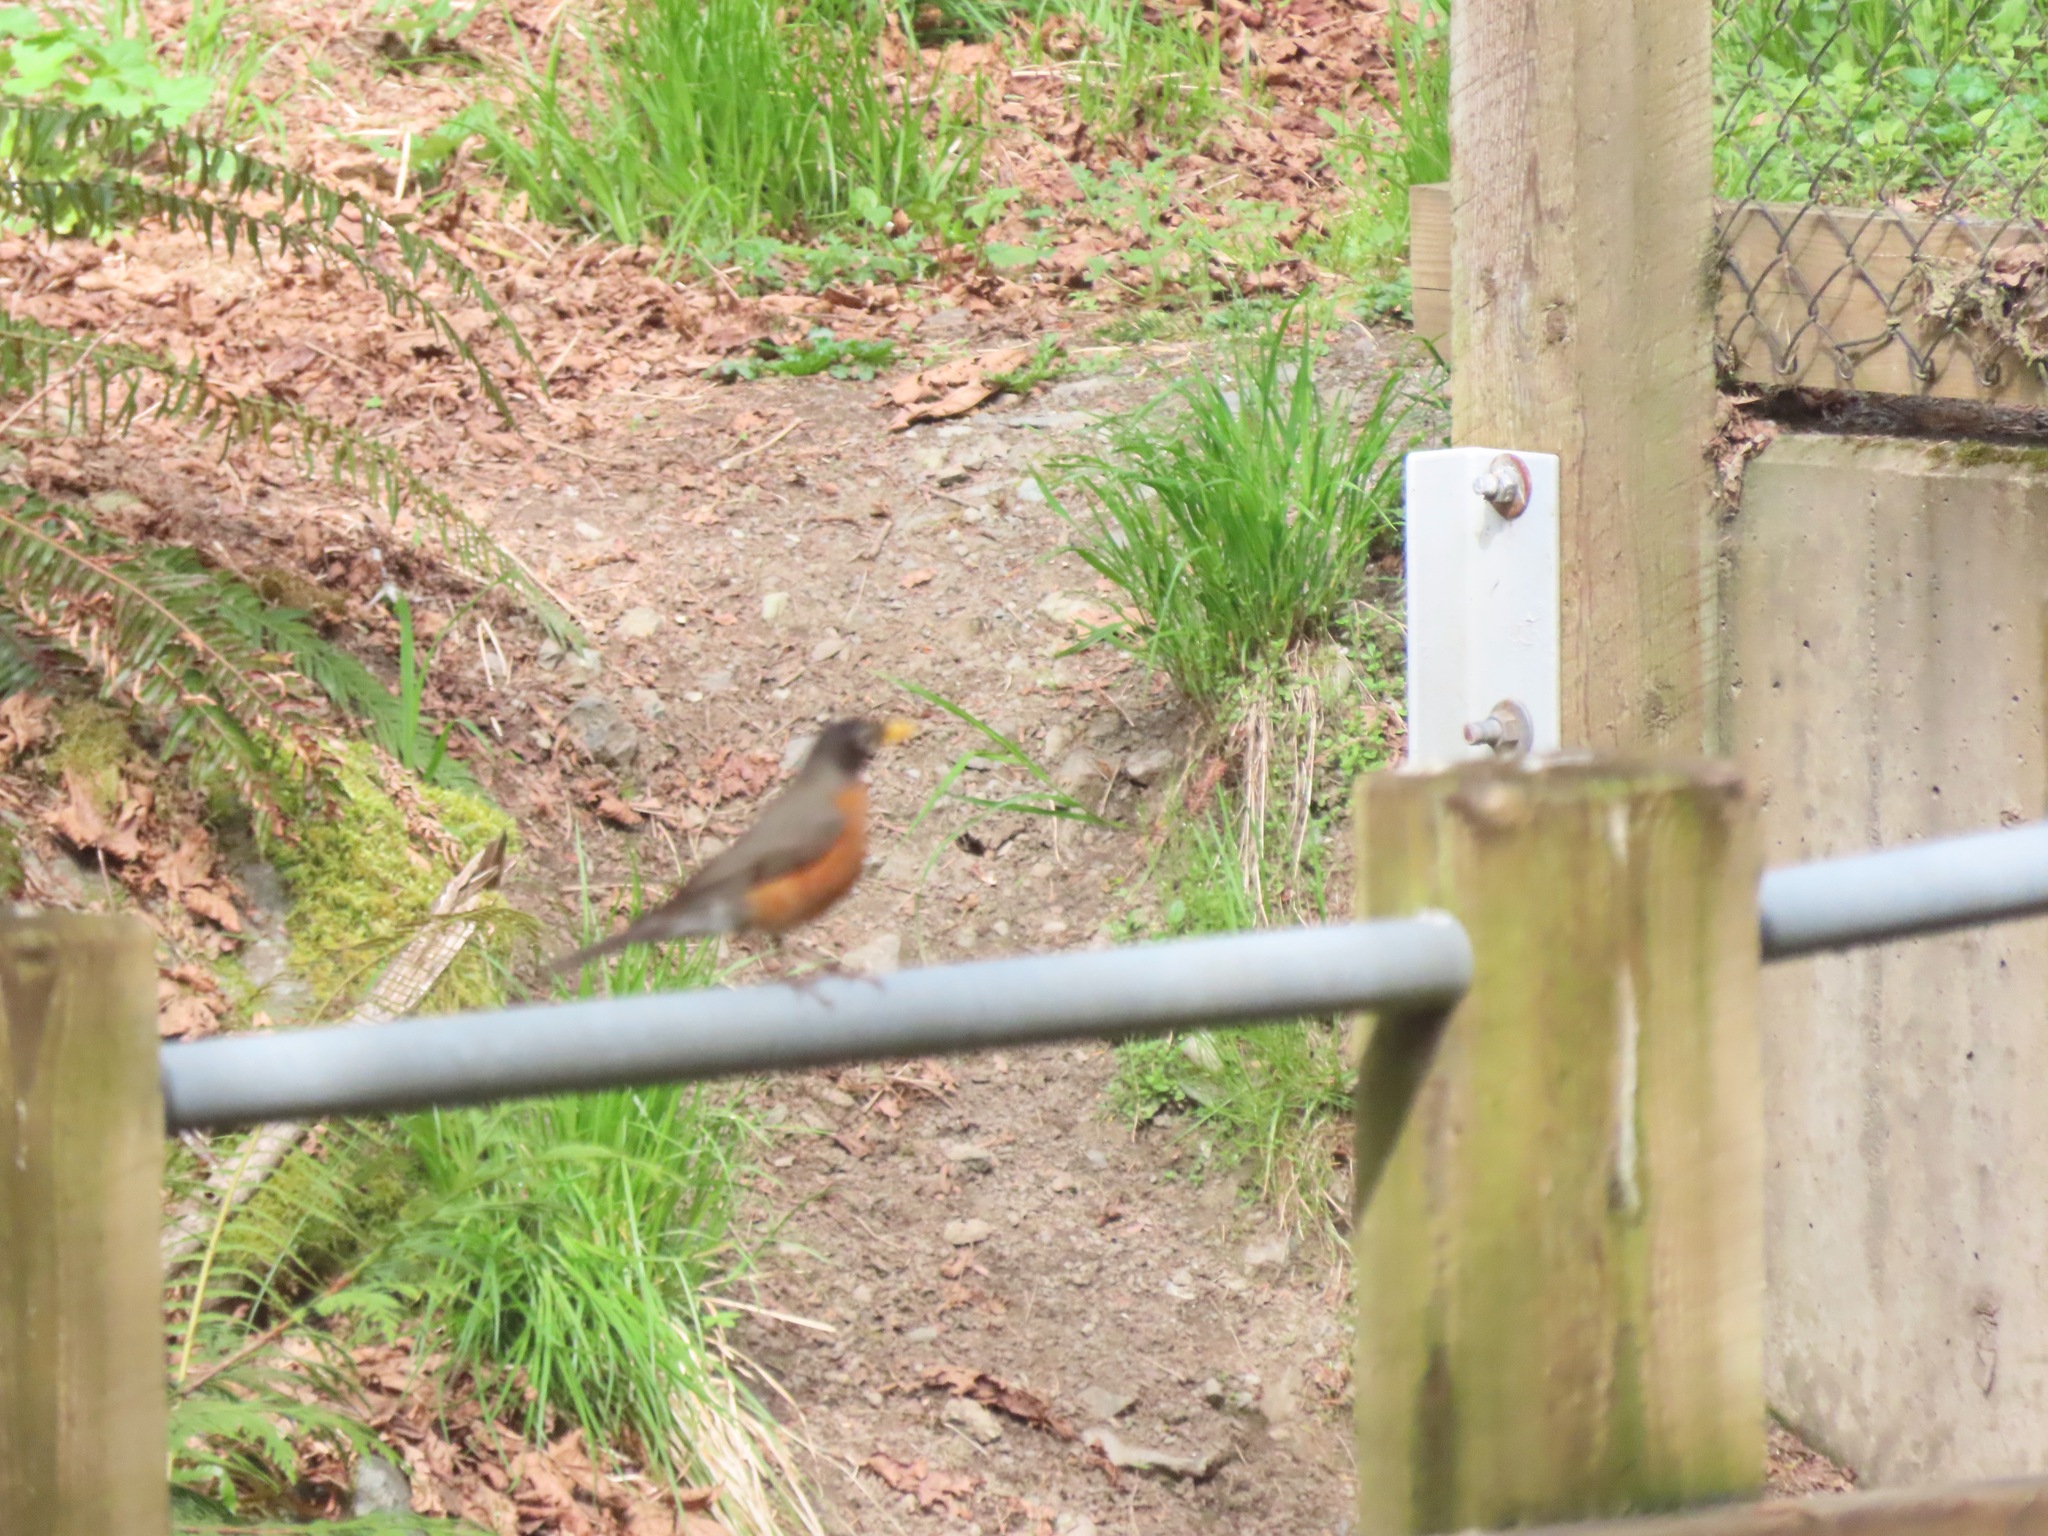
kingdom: Animalia
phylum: Chordata
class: Aves
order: Passeriformes
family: Turdidae
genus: Turdus
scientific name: Turdus migratorius
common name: American robin
